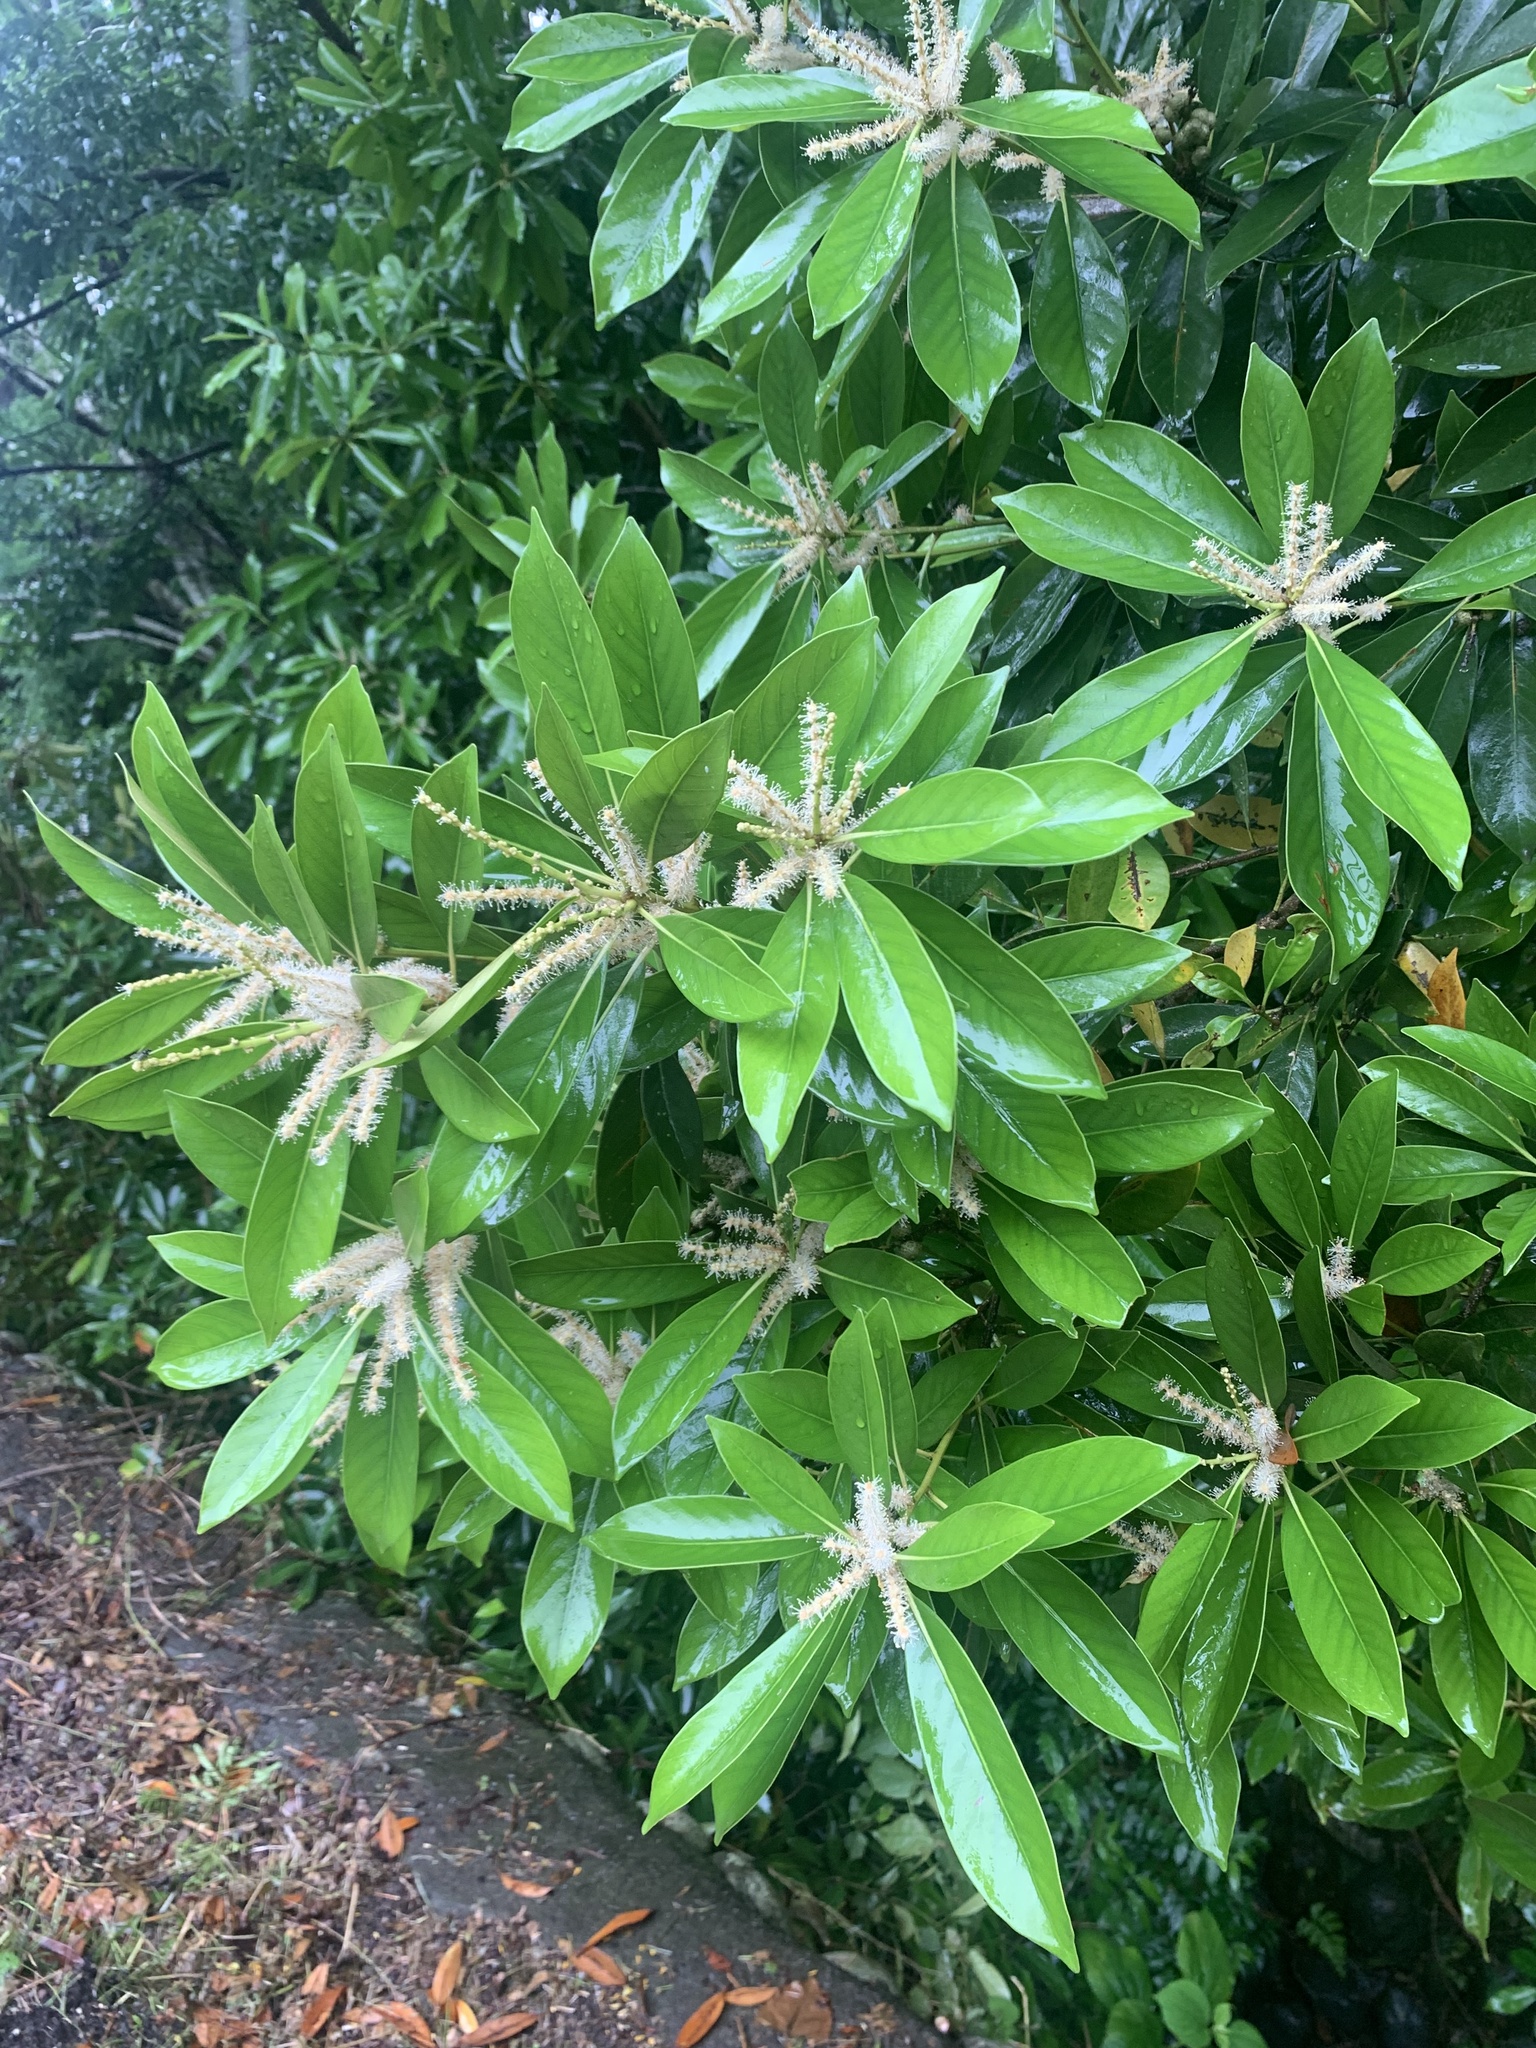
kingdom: Plantae
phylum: Tracheophyta
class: Magnoliopsida
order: Fagales
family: Fagaceae
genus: Lithocarpus
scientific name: Lithocarpus edulis
